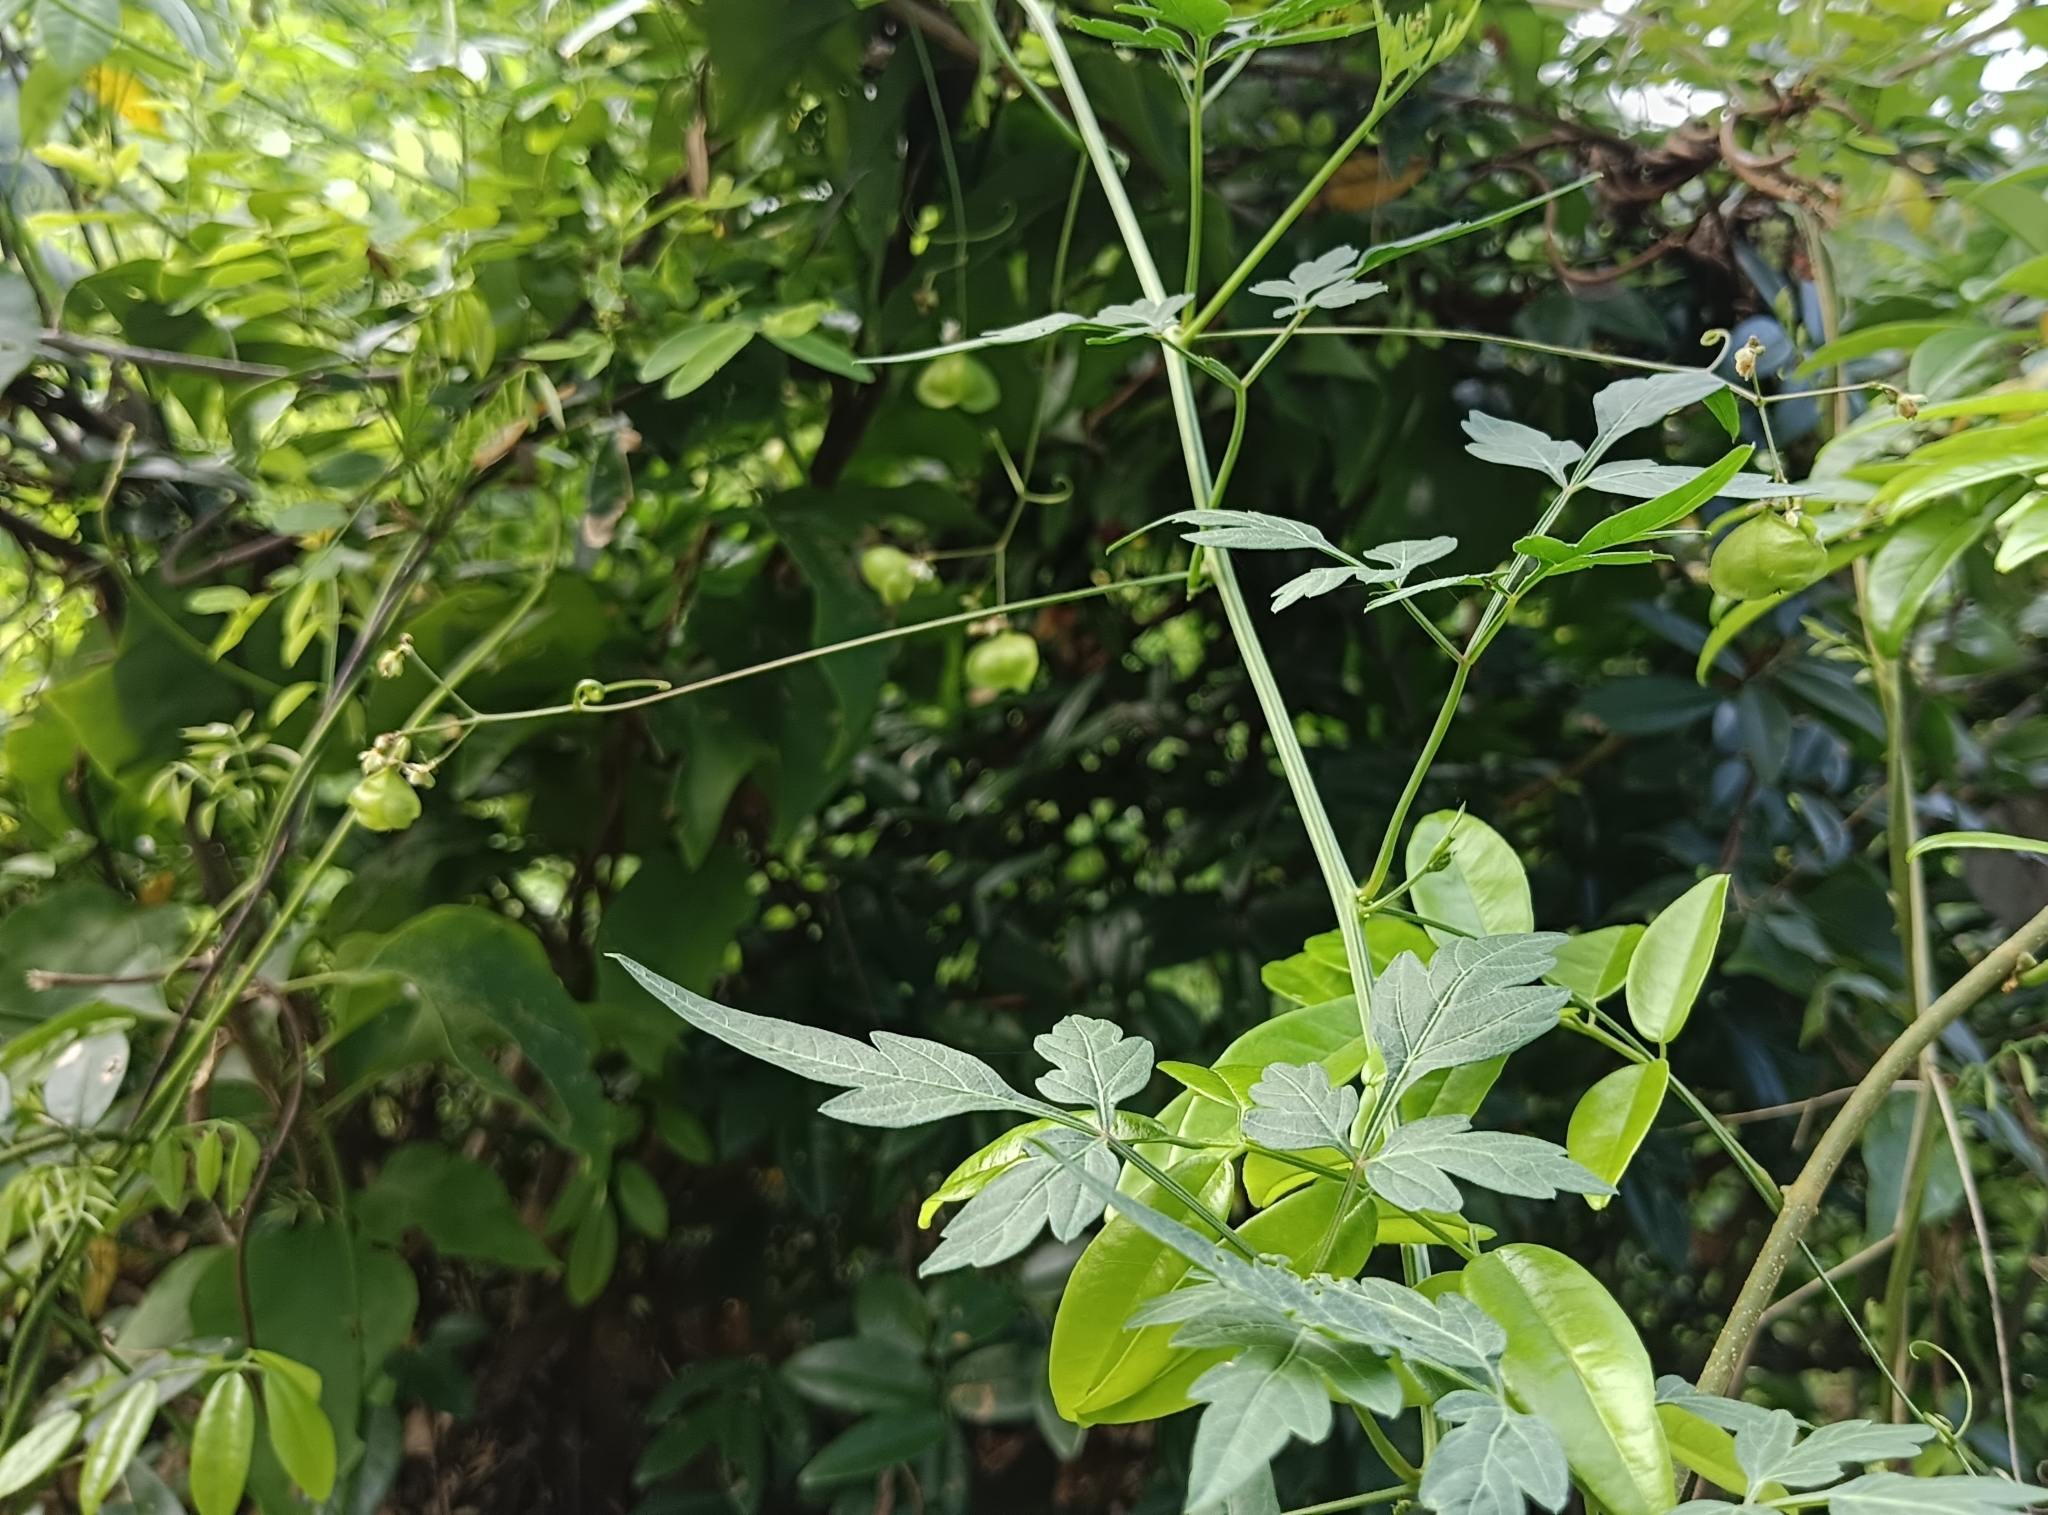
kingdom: Plantae
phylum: Tracheophyta
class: Magnoliopsida
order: Sapindales
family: Sapindaceae
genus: Cardiospermum
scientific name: Cardiospermum halicacabum
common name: Balloon vine
